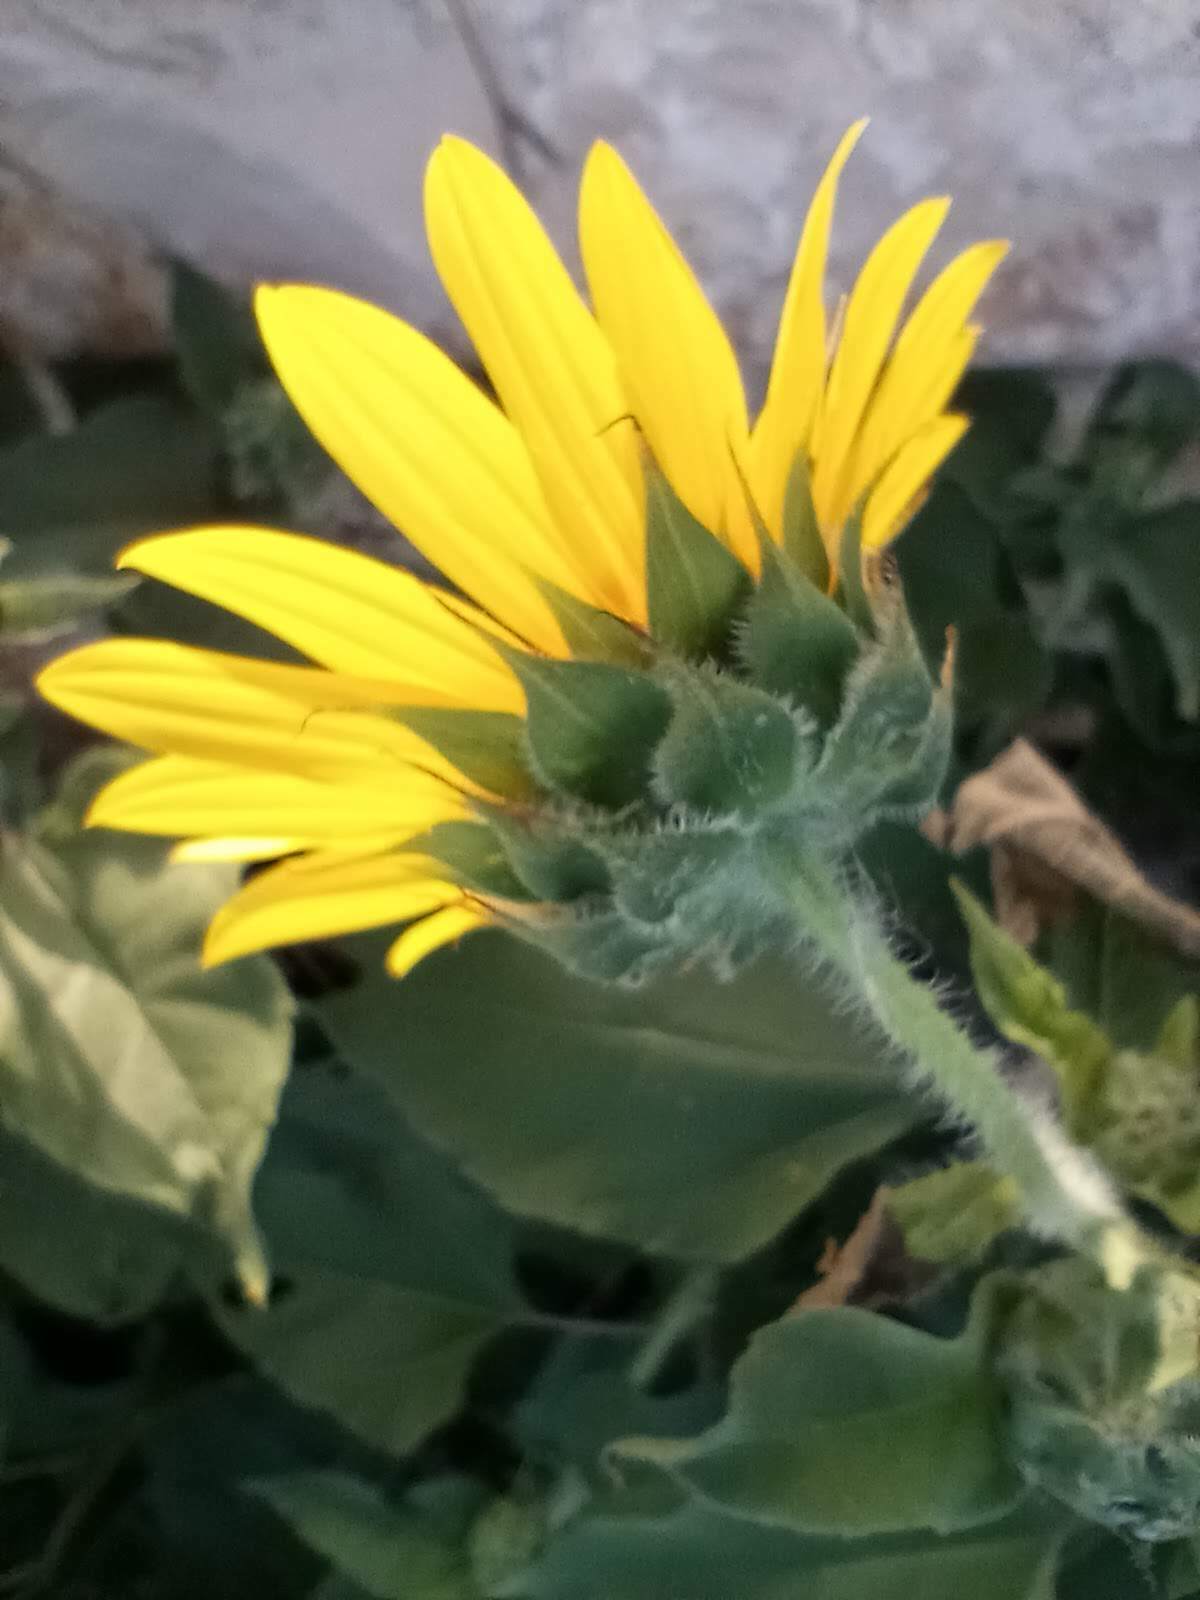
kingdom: Plantae
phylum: Tracheophyta
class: Magnoliopsida
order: Asterales
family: Asteraceae
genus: Helianthus
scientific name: Helianthus annuus
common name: Sunflower
